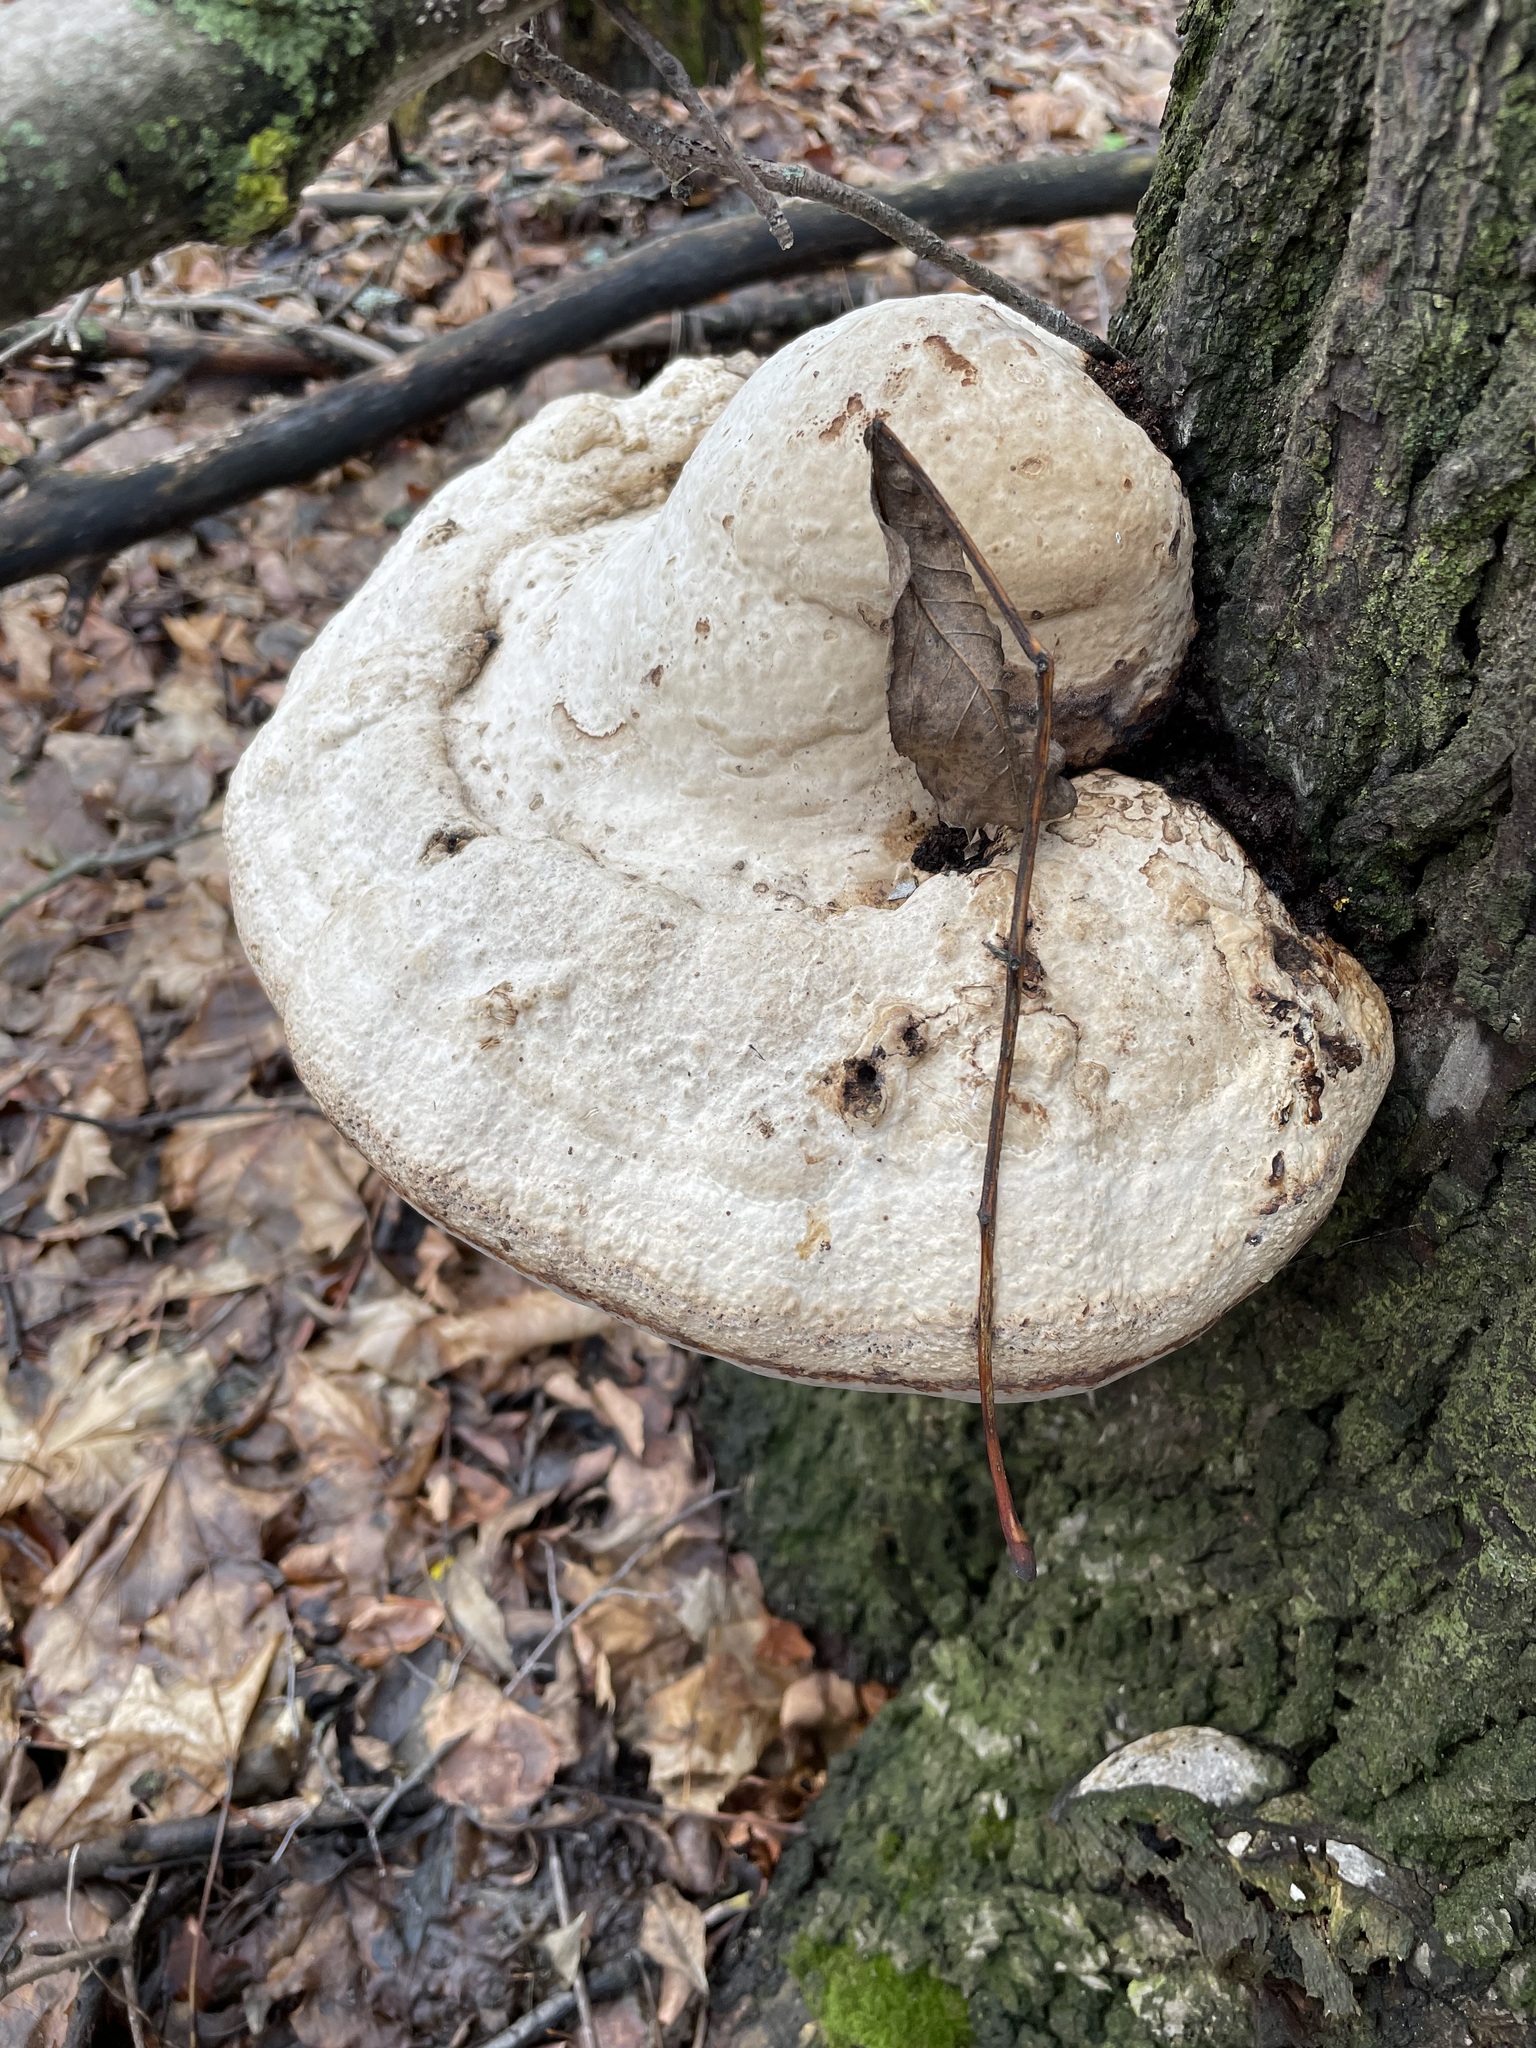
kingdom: Fungi
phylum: Basidiomycota
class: Agaricomycetes
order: Polyporales
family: Polyporaceae
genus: Fomes
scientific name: Fomes fomentarius
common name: Hoof fungus
